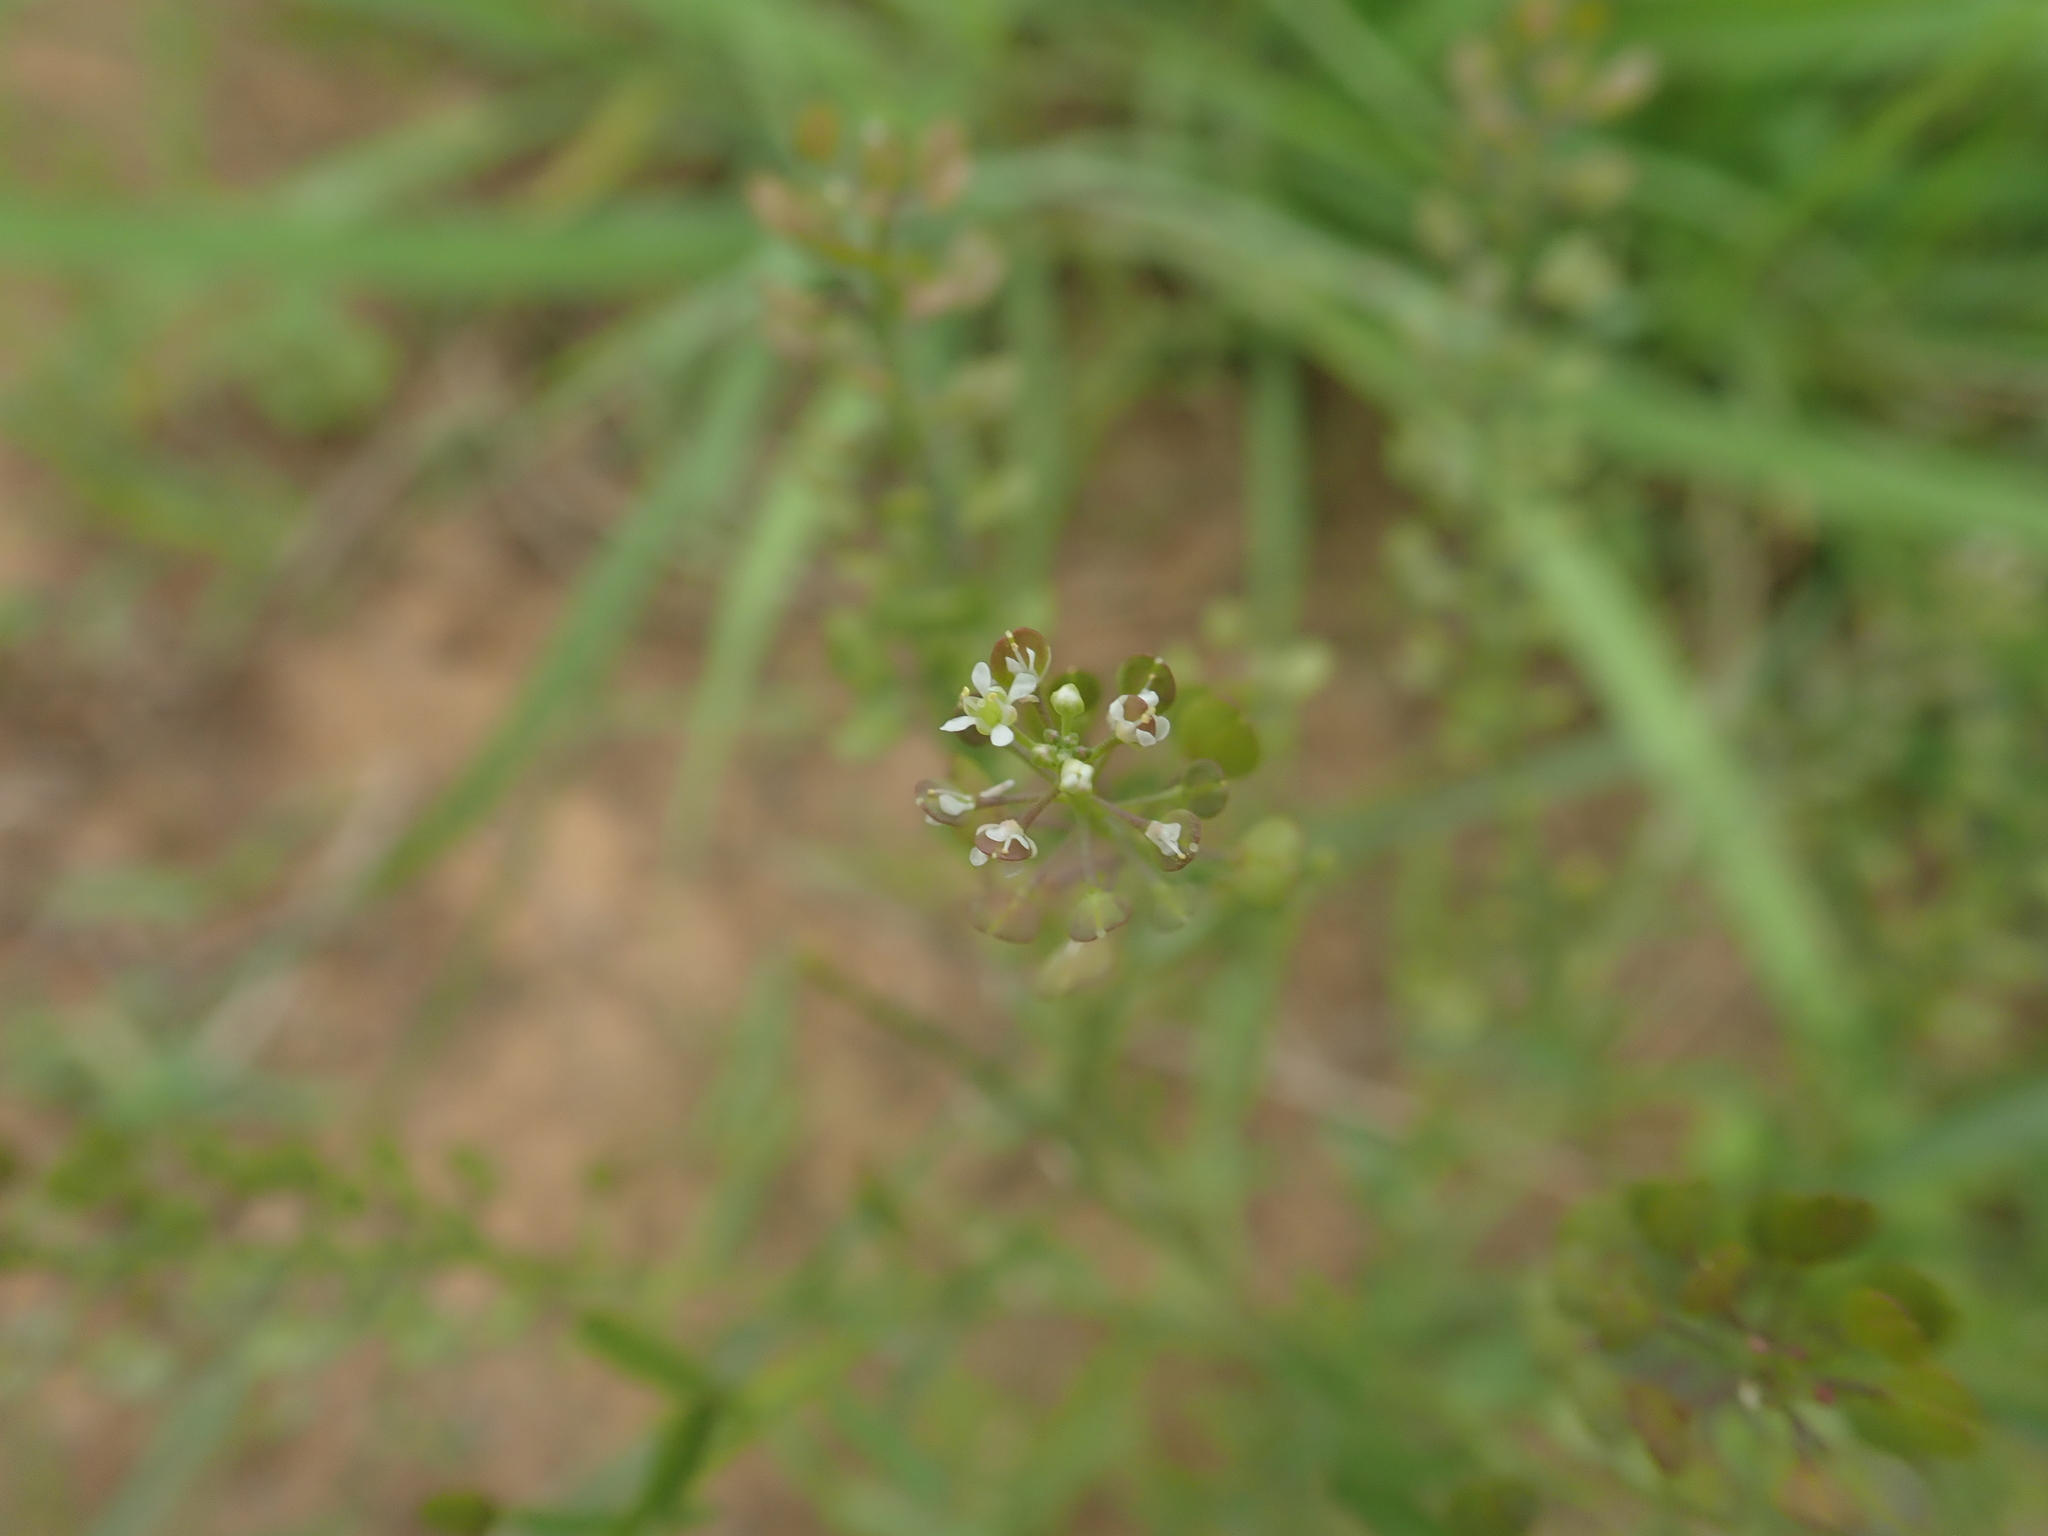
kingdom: Plantae
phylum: Tracheophyta
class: Magnoliopsida
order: Brassicales
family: Brassicaceae
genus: Lepidium
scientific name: Lepidium virginicum
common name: Least pepperwort
